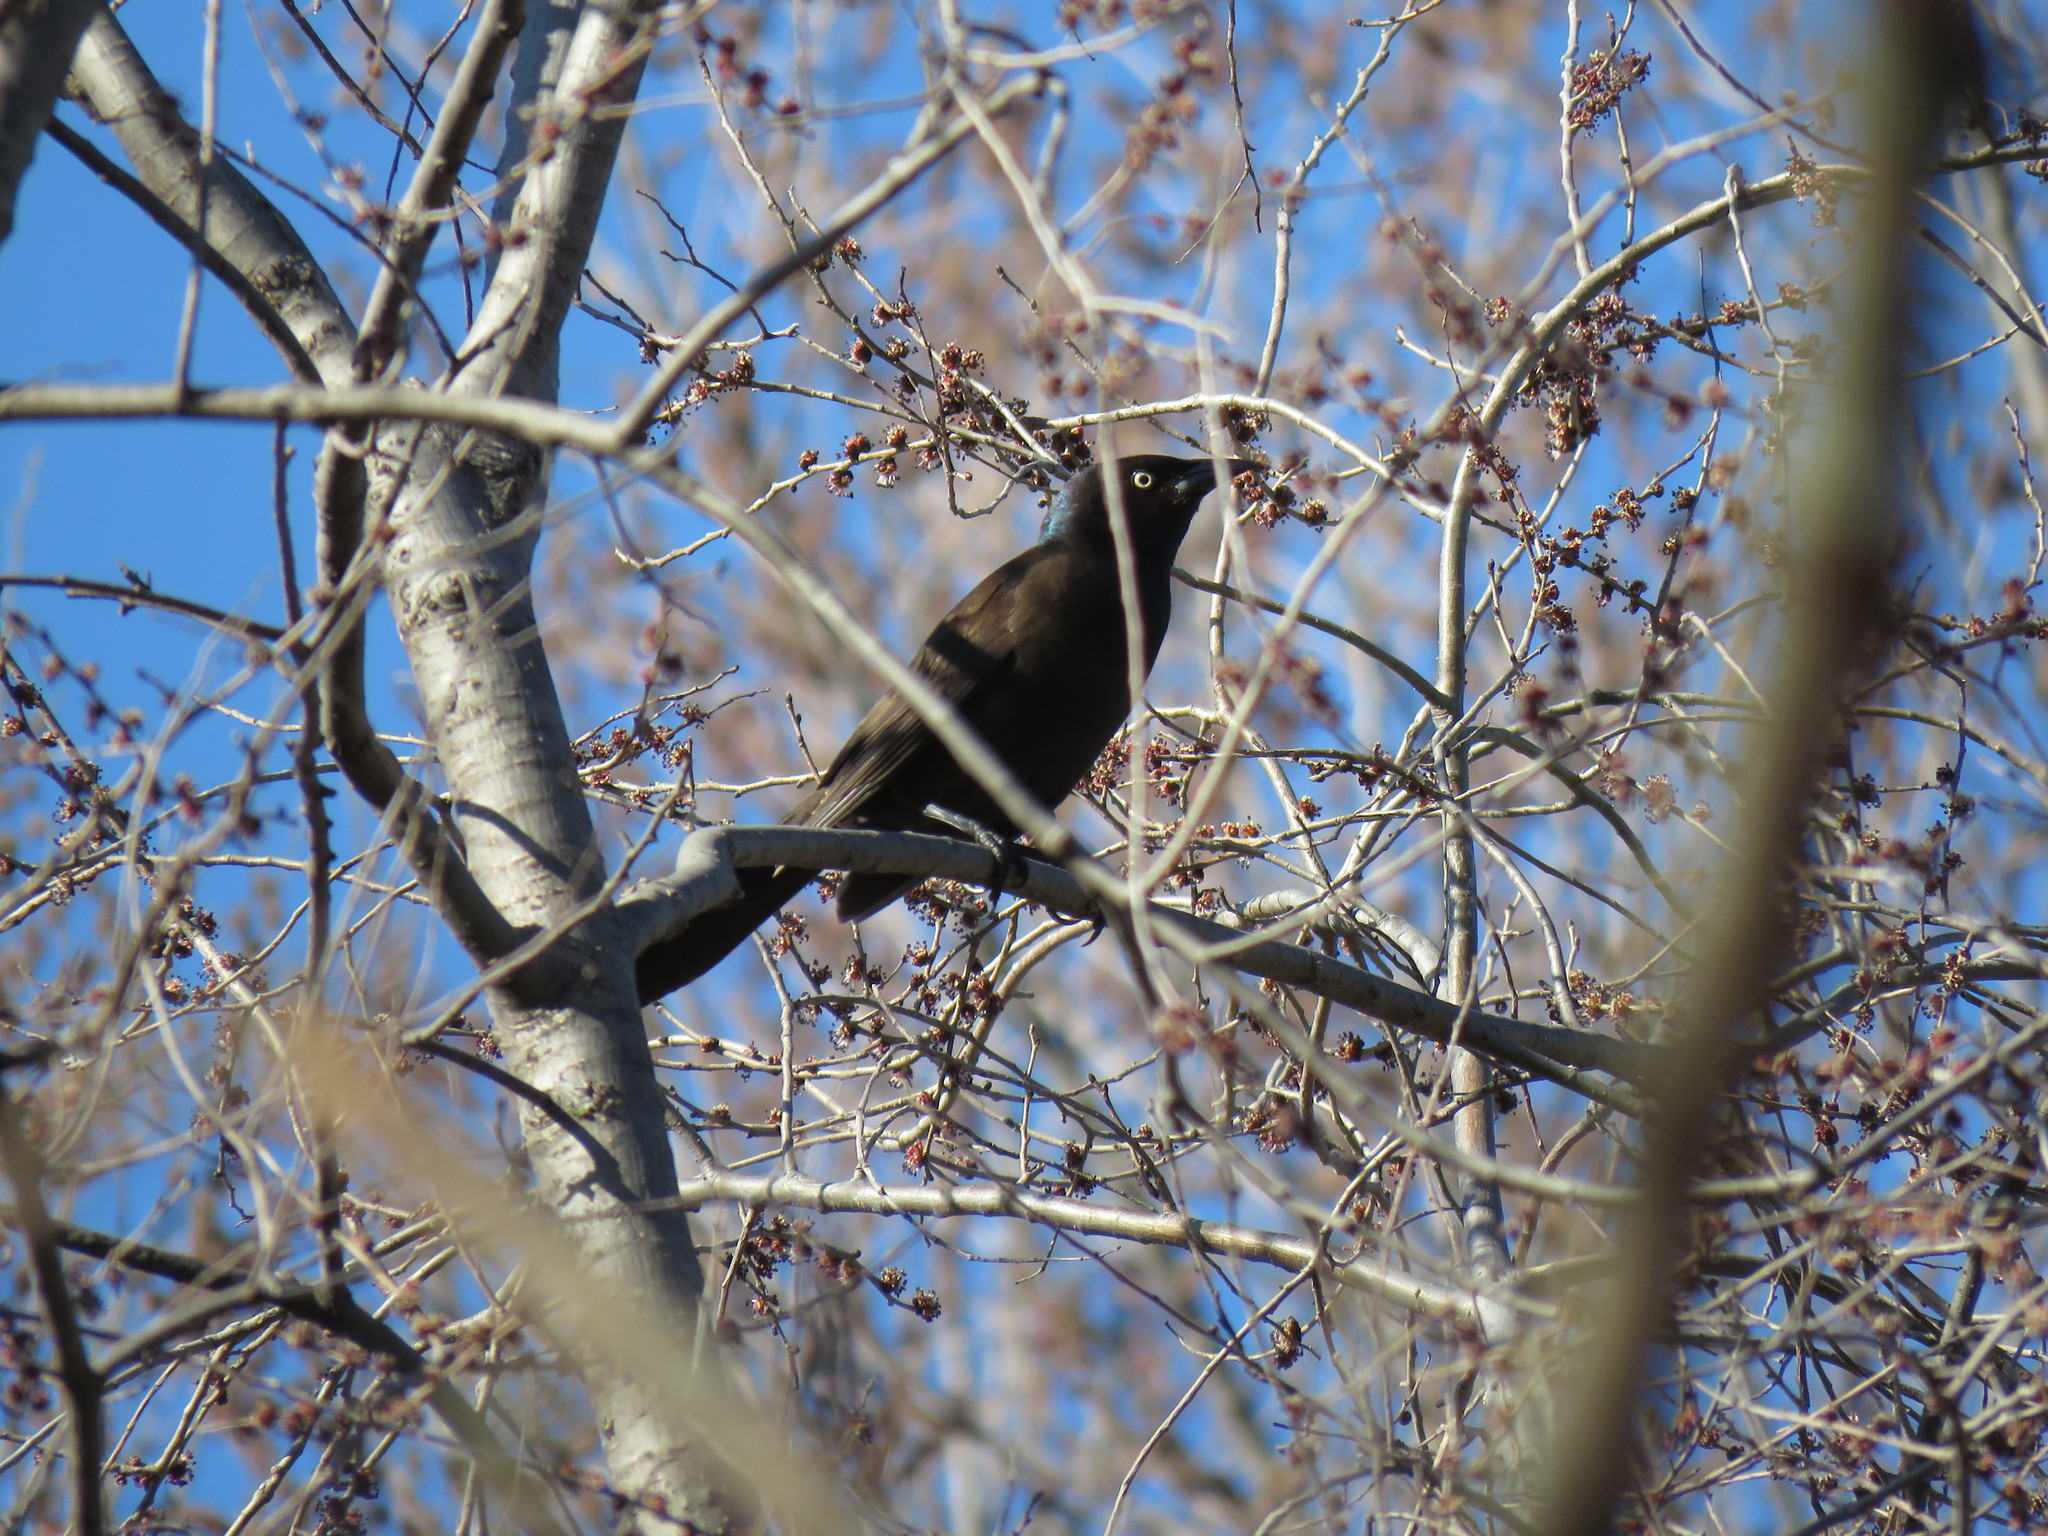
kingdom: Animalia
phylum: Chordata
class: Aves
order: Passeriformes
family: Icteridae
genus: Quiscalus
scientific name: Quiscalus quiscula
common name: Common grackle
